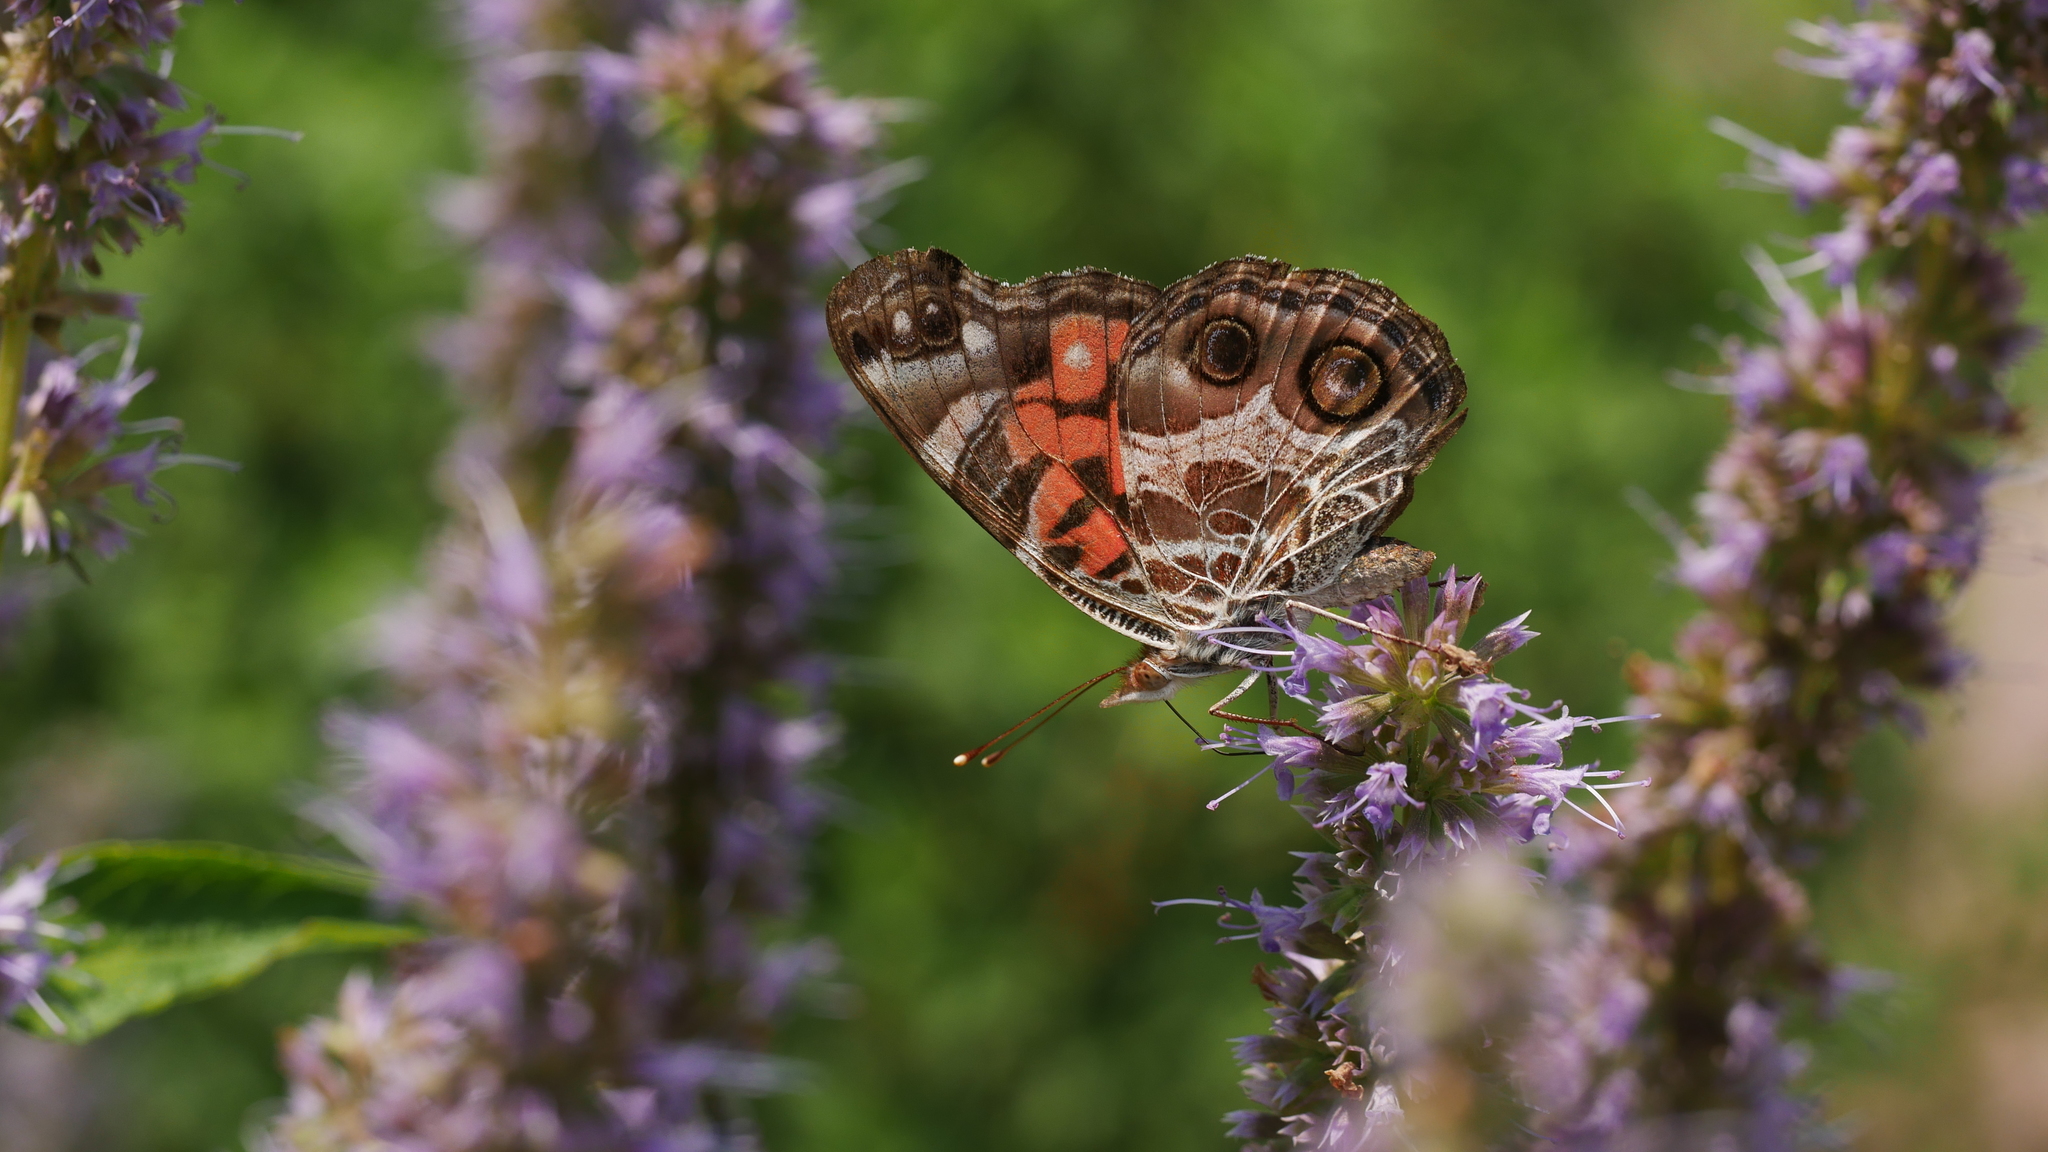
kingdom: Animalia
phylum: Arthropoda
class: Insecta
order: Lepidoptera
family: Nymphalidae
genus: Vanessa
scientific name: Vanessa virginiensis
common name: American lady
